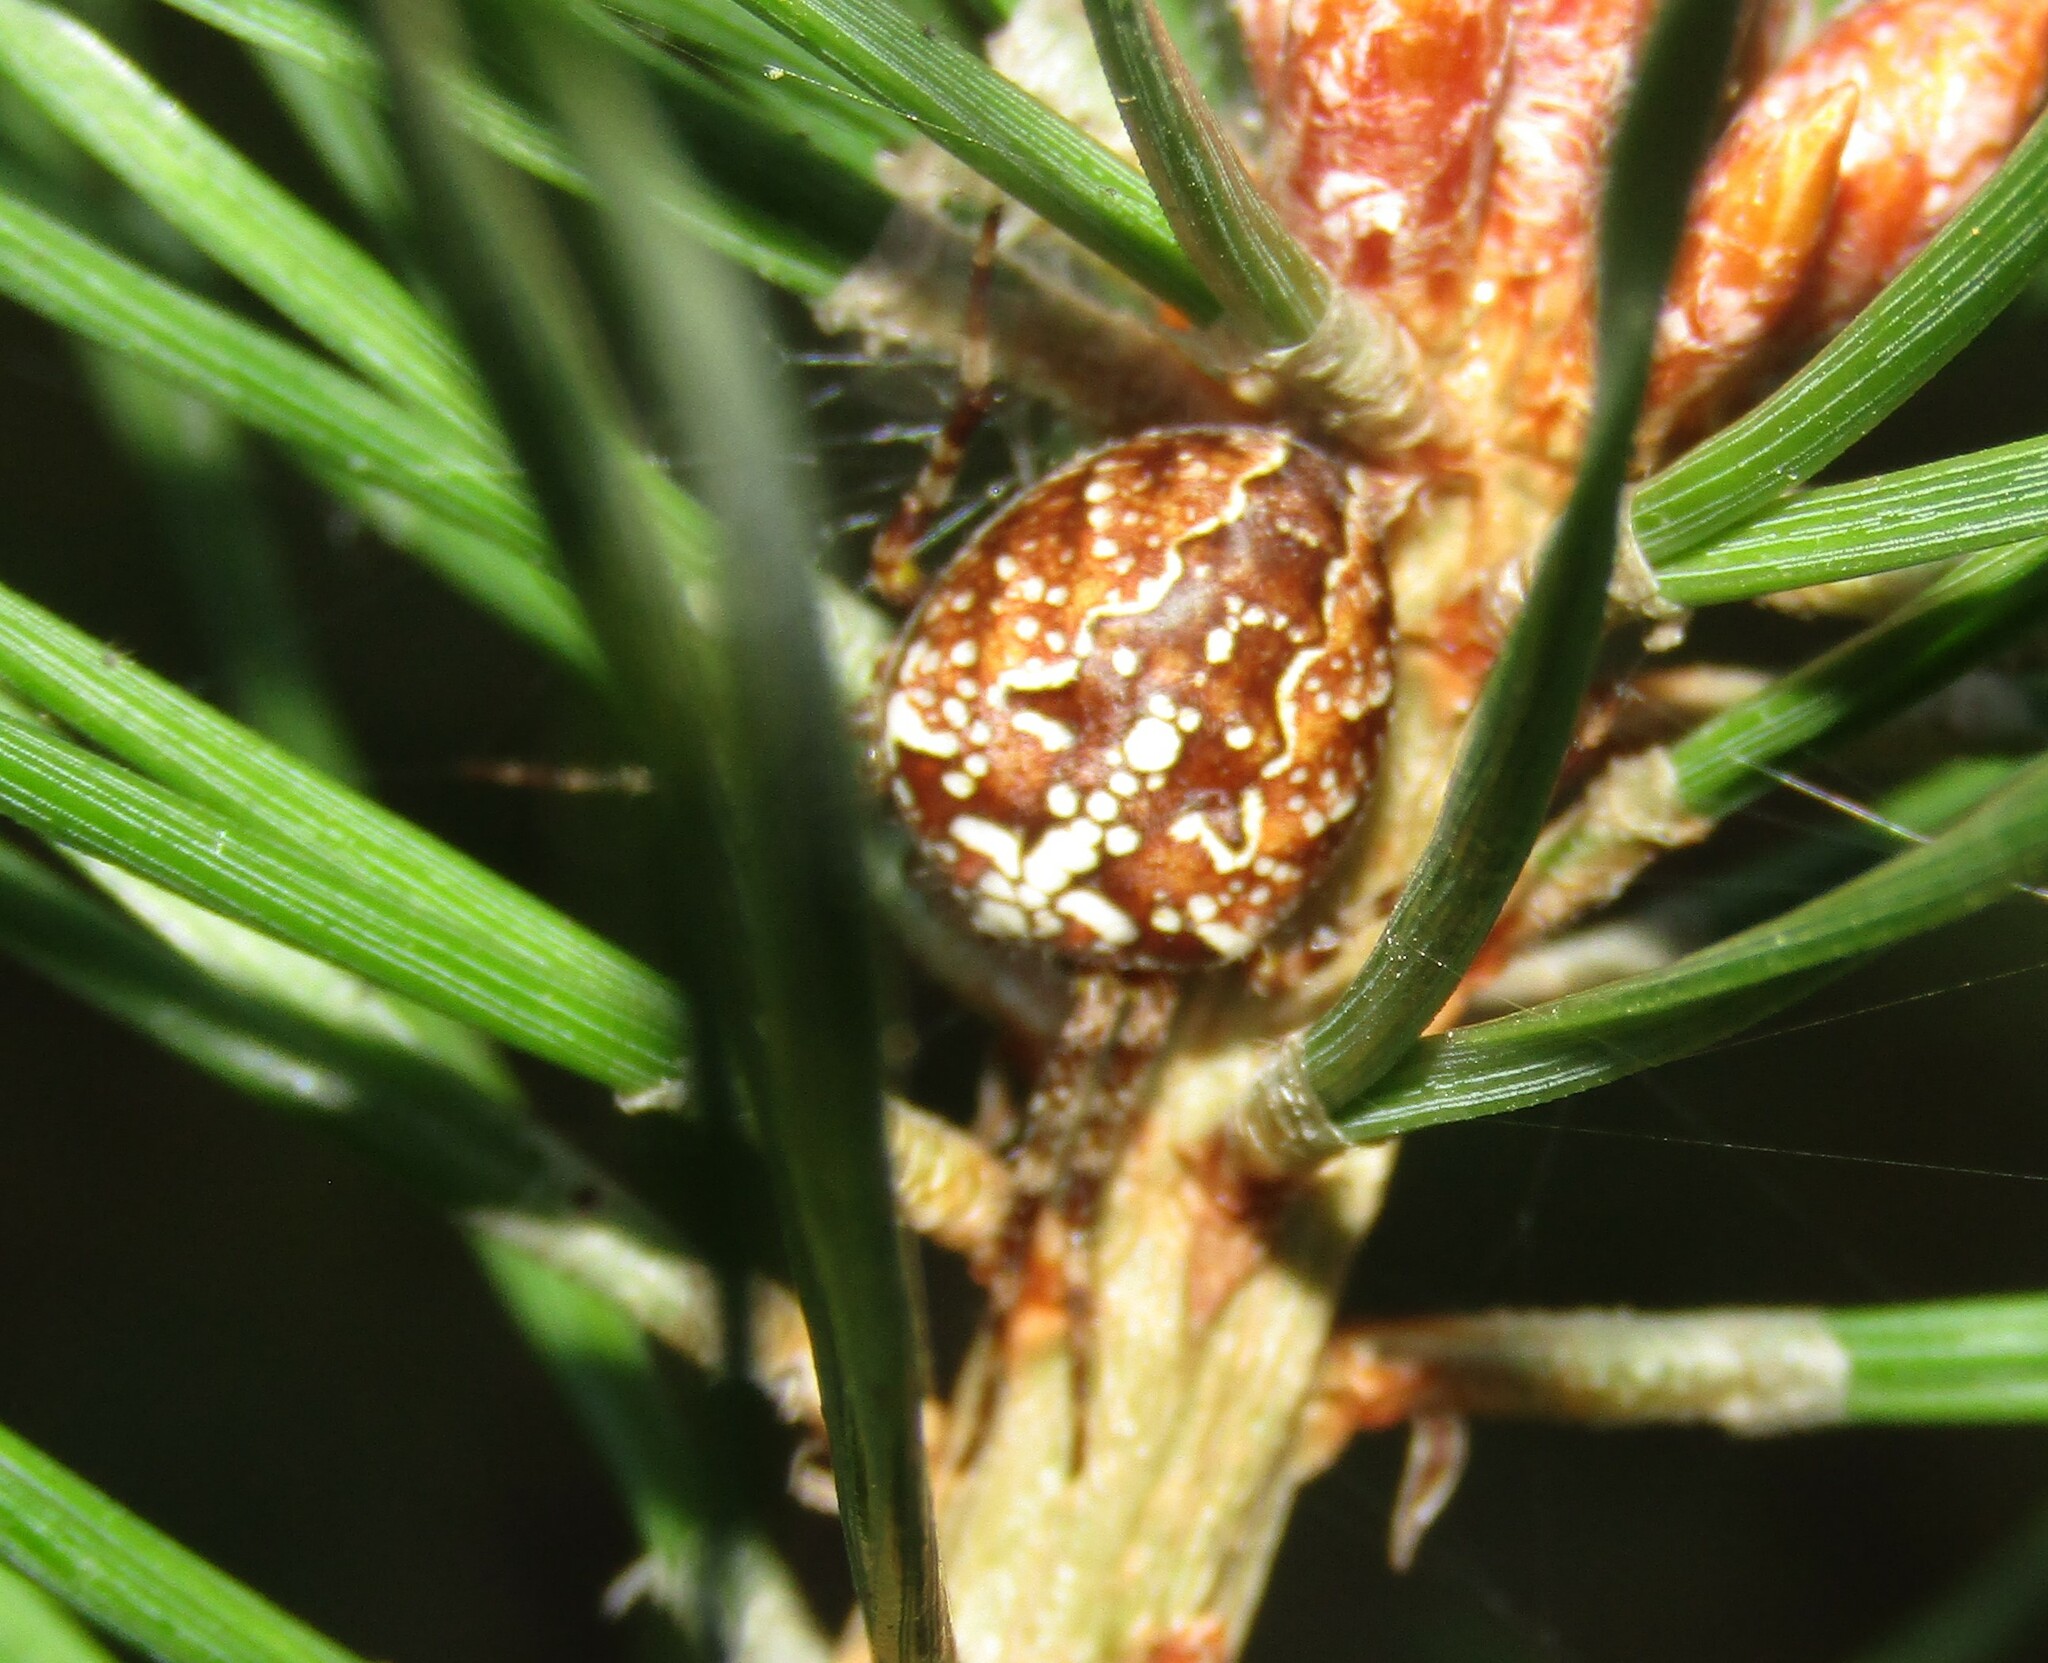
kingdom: Animalia
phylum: Arthropoda
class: Arachnida
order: Araneae
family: Araneidae
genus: Araneus
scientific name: Araneus diadematus
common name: Cross orbweaver
